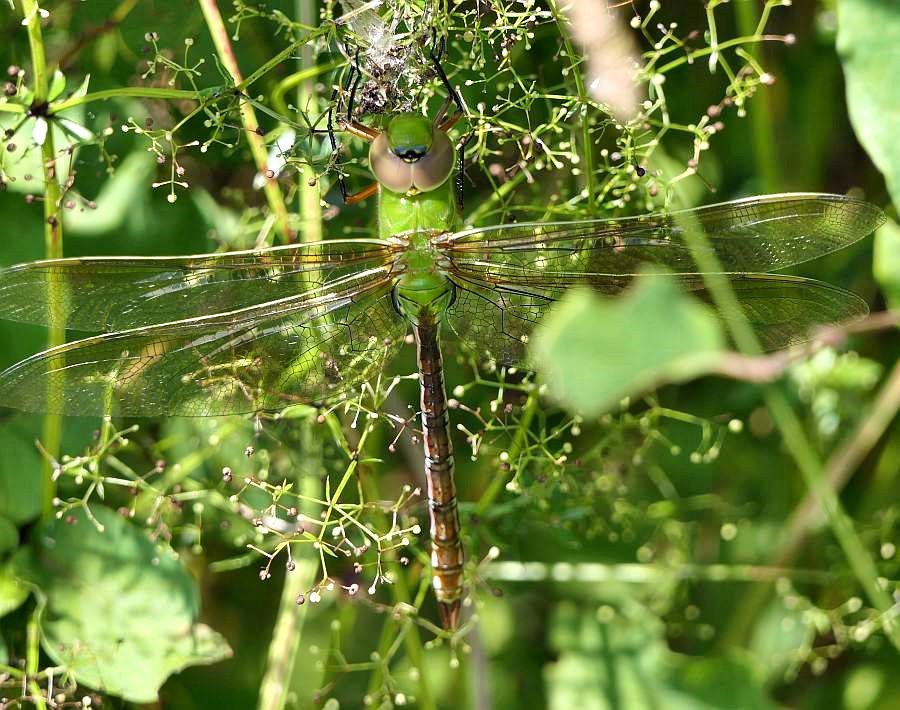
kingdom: Animalia
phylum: Arthropoda
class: Insecta
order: Odonata
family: Aeshnidae
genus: Anax
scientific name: Anax junius
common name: Common green darner
